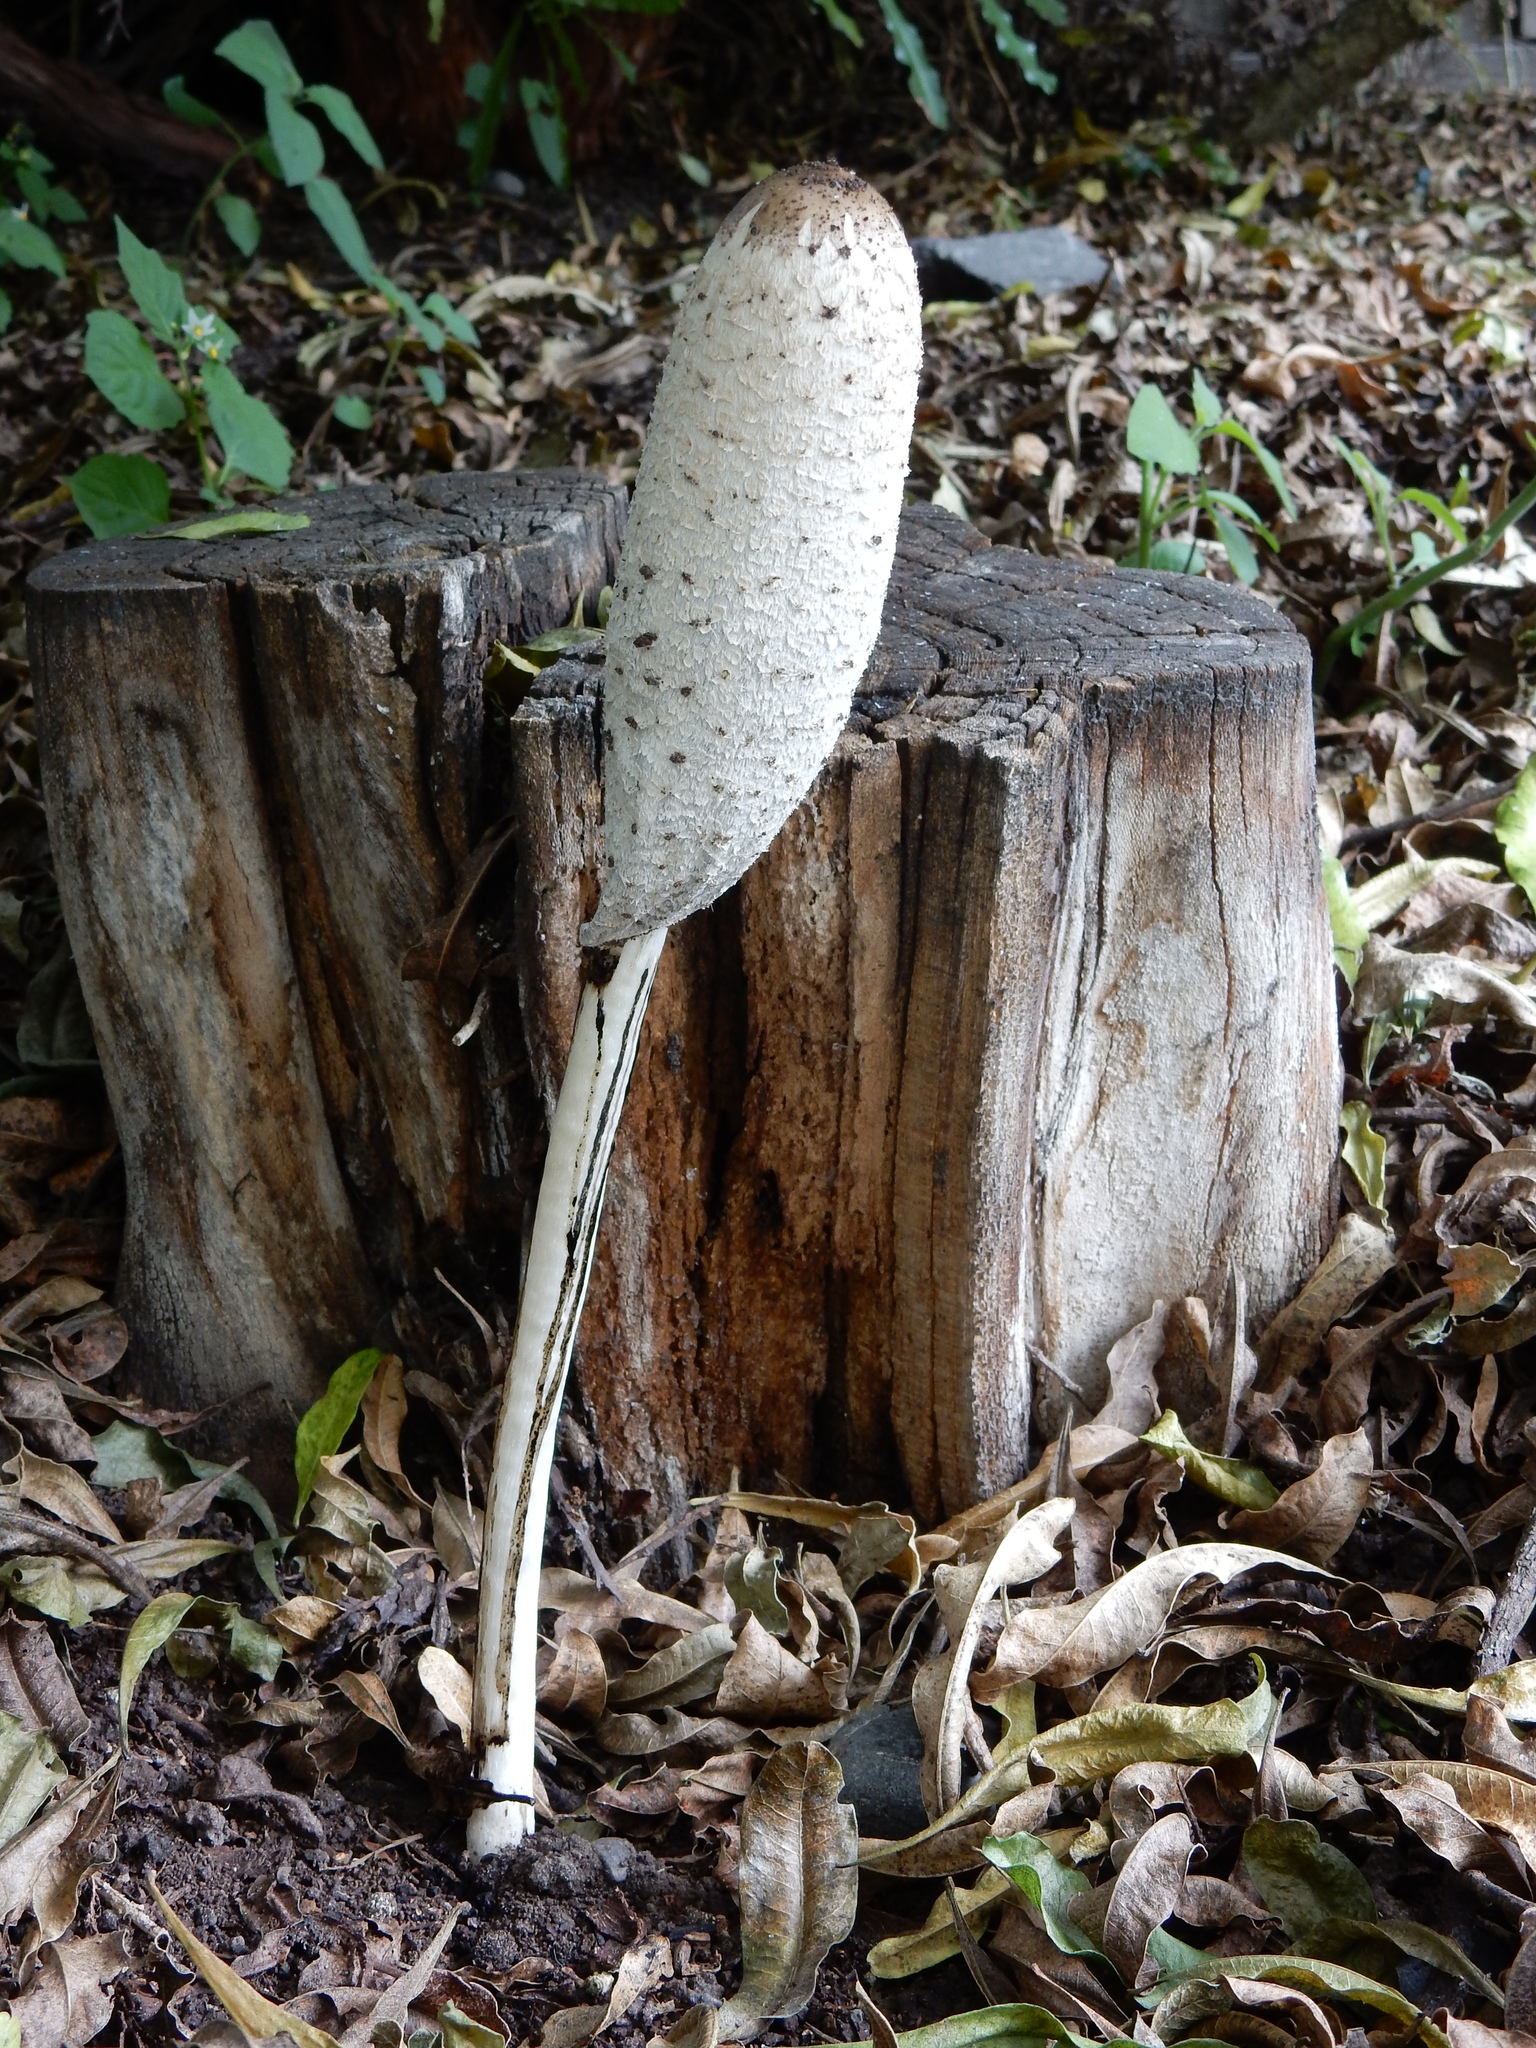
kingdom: Fungi
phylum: Basidiomycota
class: Agaricomycetes
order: Agaricales
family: Agaricaceae
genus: Coprinus
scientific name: Coprinus comatus
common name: Lawyer's wig
